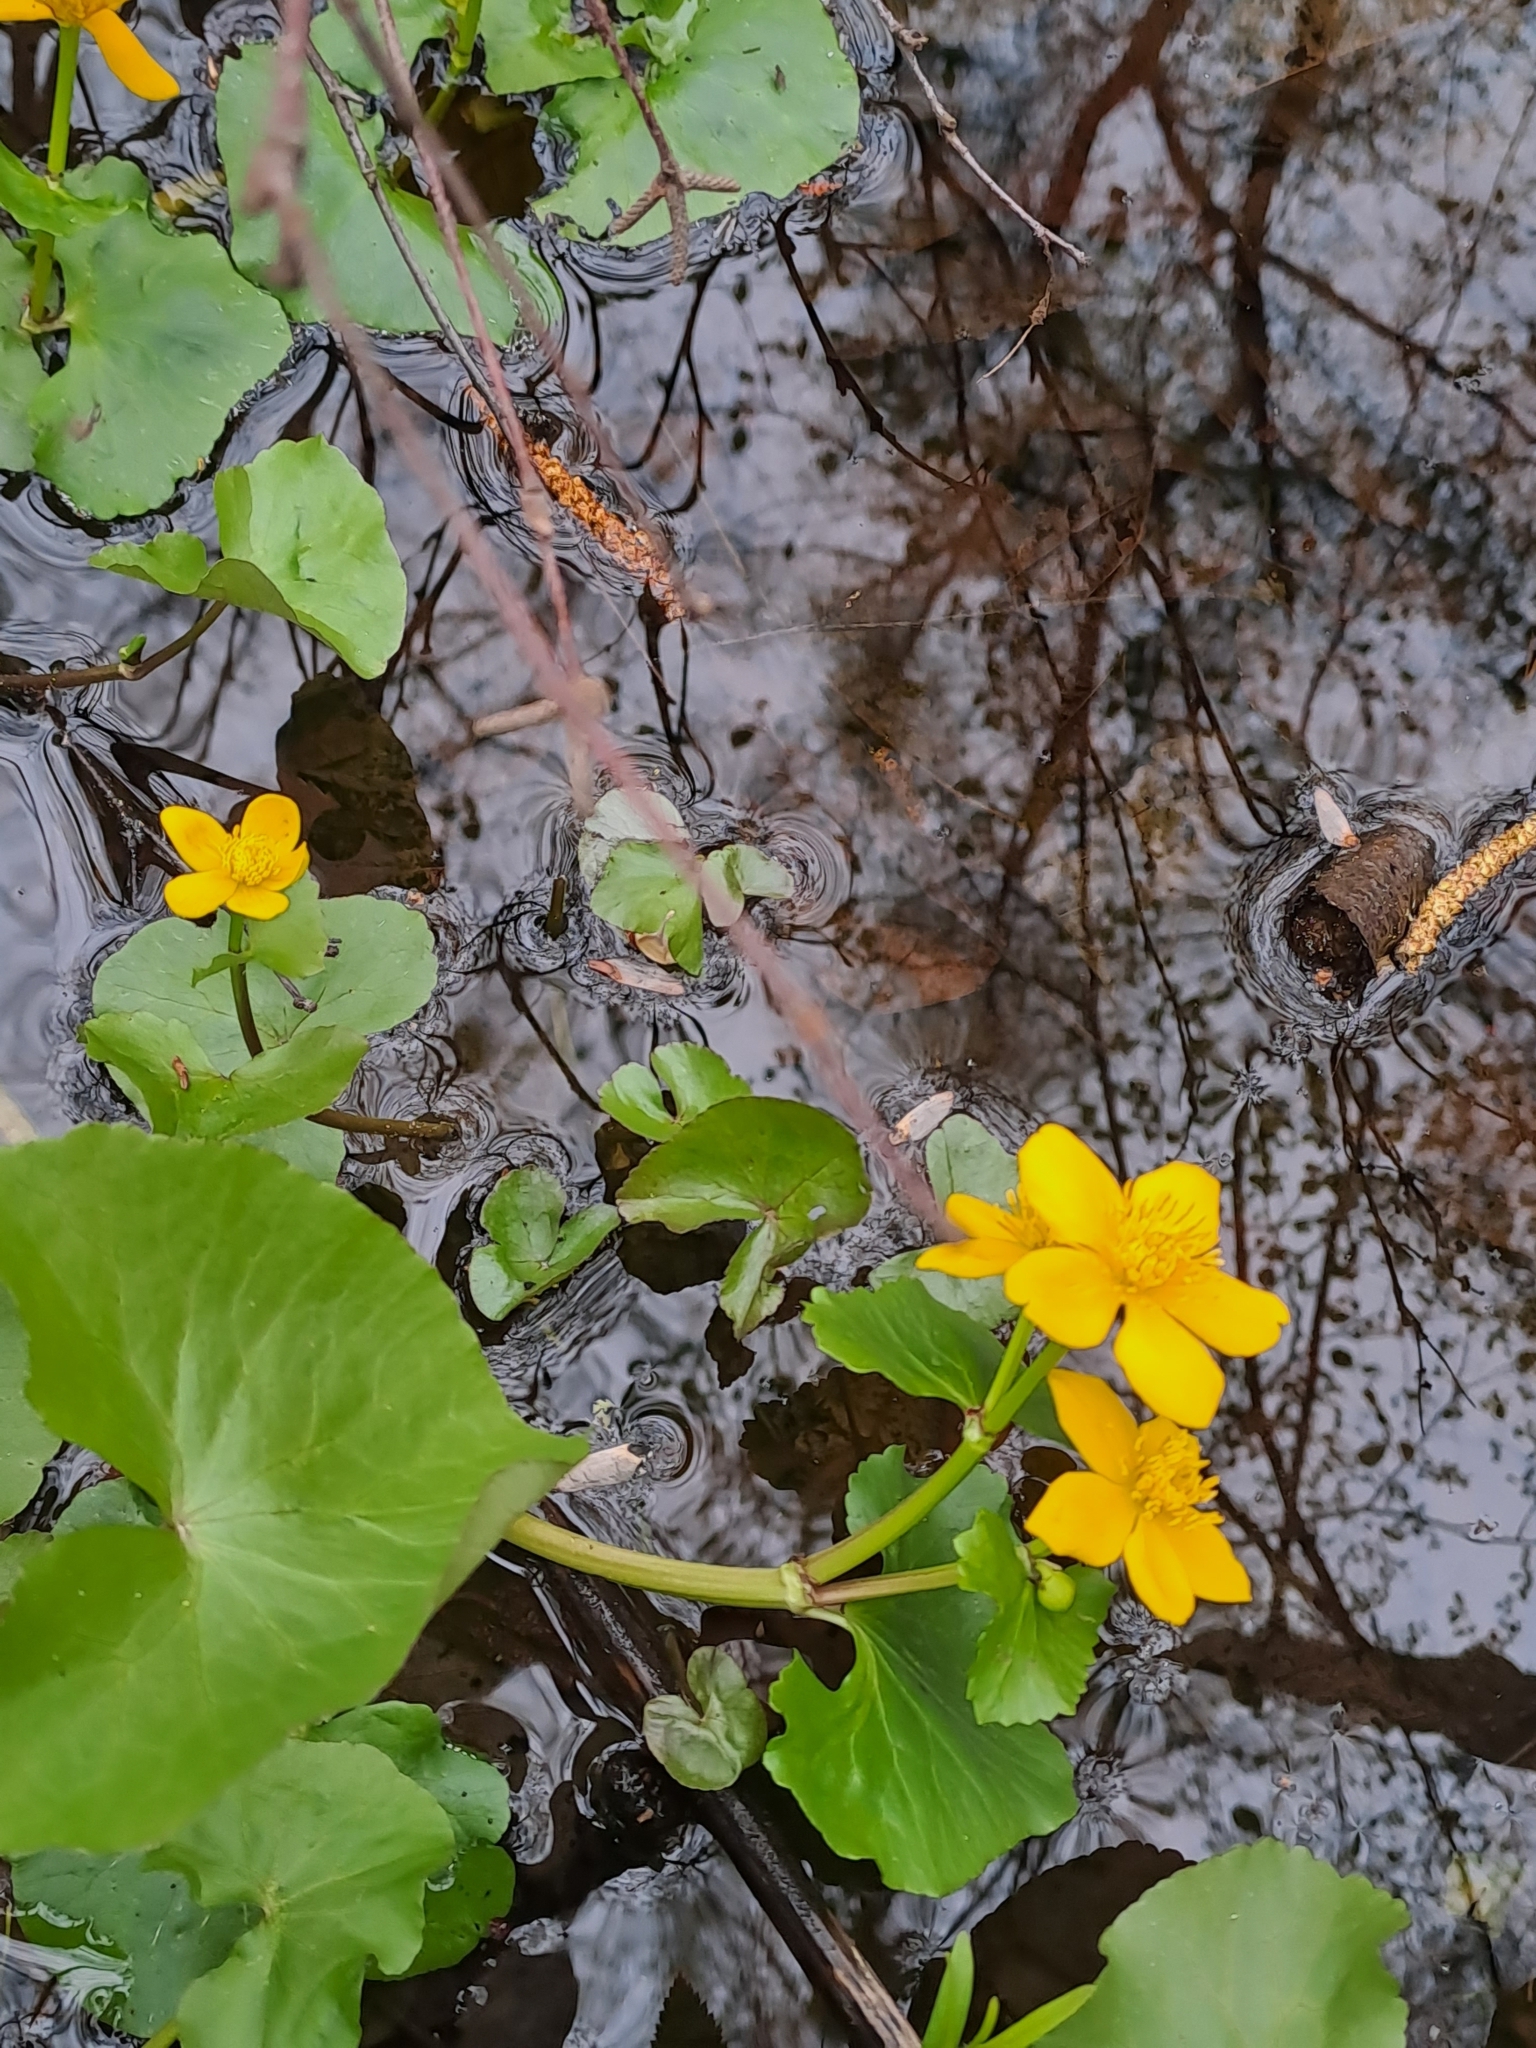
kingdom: Plantae
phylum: Tracheophyta
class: Magnoliopsida
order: Ranunculales
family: Ranunculaceae
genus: Caltha
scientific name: Caltha palustris
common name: Marsh marigold
